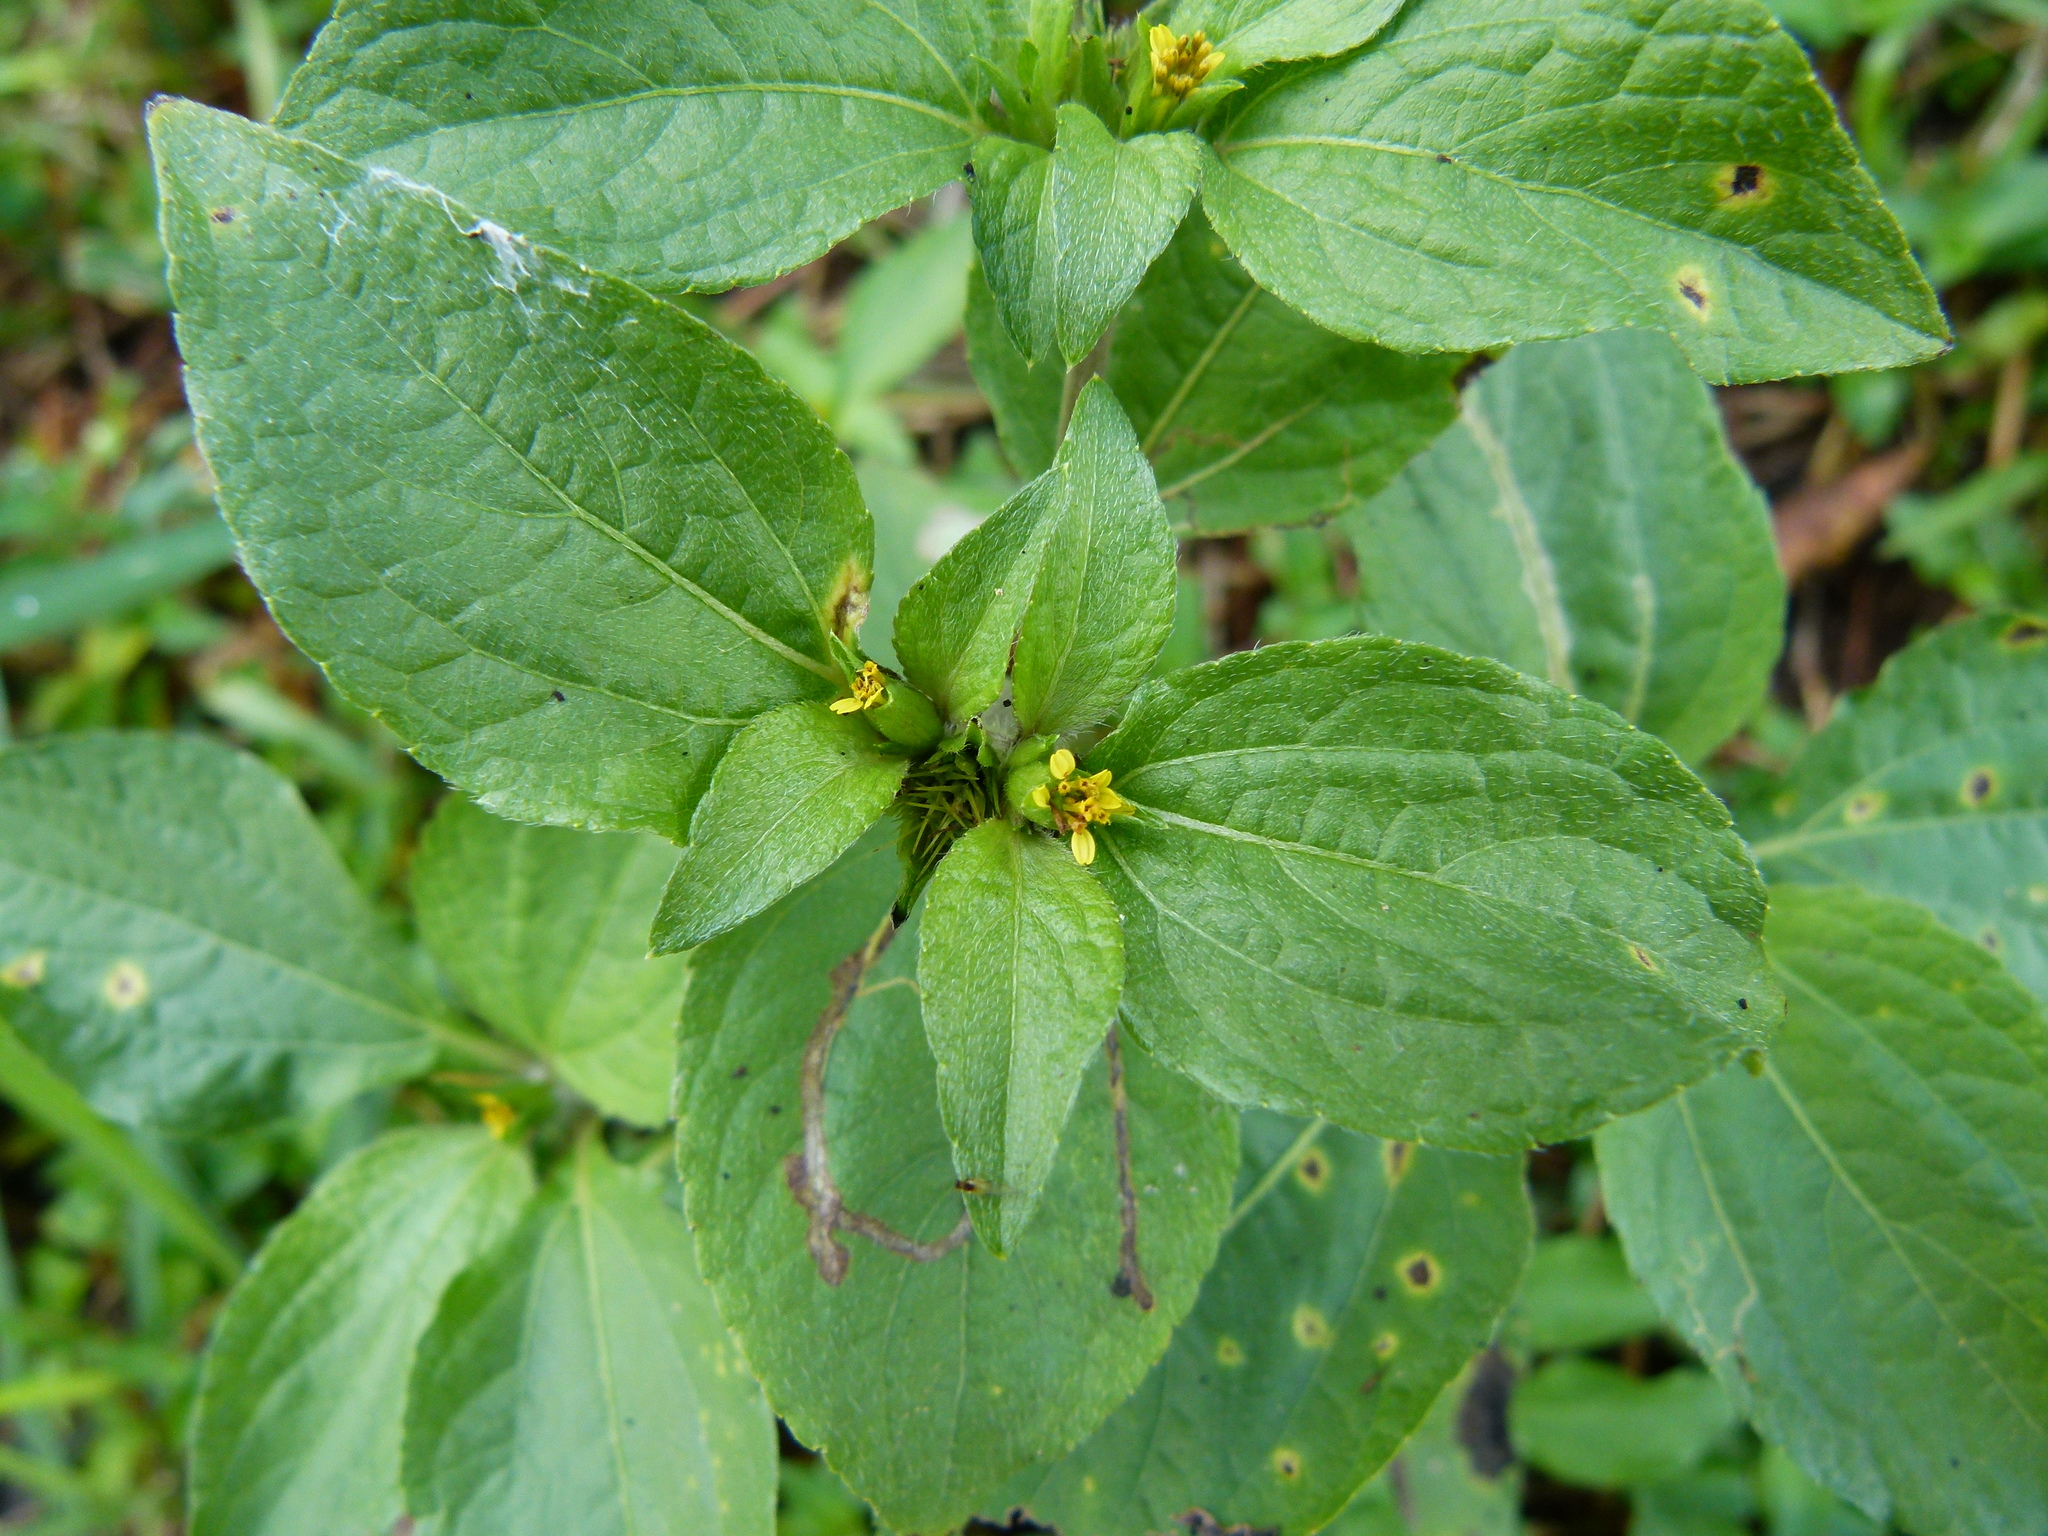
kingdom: Plantae
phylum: Tracheophyta
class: Magnoliopsida
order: Asterales
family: Asteraceae
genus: Synedrella
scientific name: Synedrella nodiflora
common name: Nodeweed
